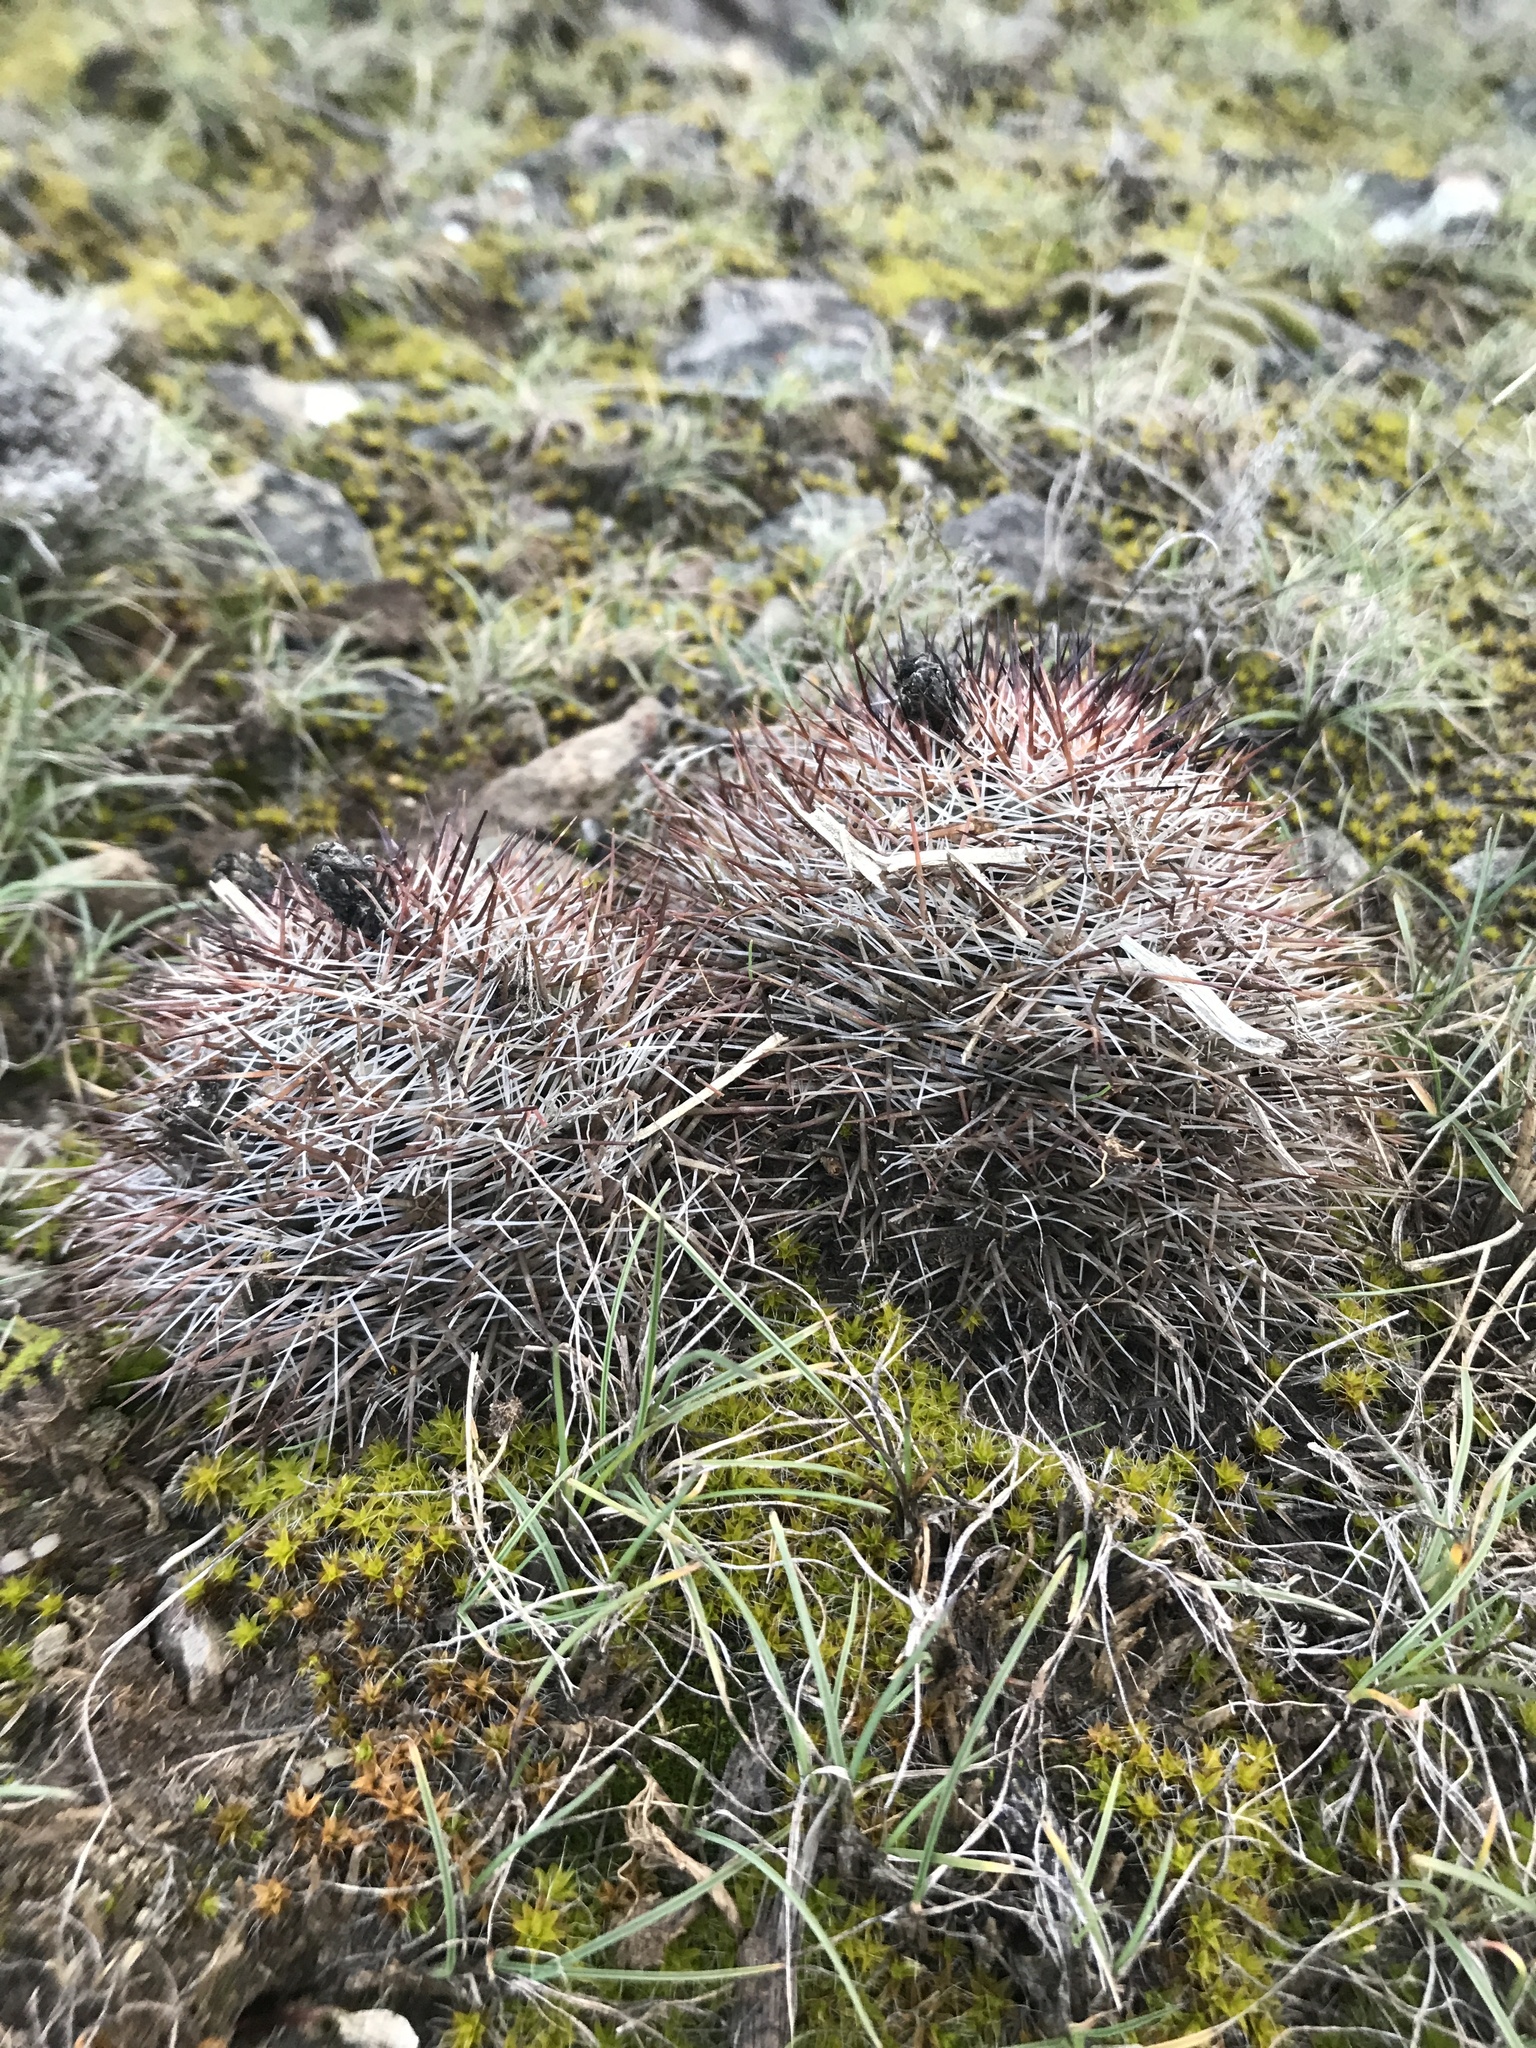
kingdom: Plantae
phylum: Tracheophyta
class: Magnoliopsida
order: Caryophyllales
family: Cactaceae
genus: Pediocactus
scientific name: Pediocactus nigrispinus
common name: Simpson's hedgehog cactus
